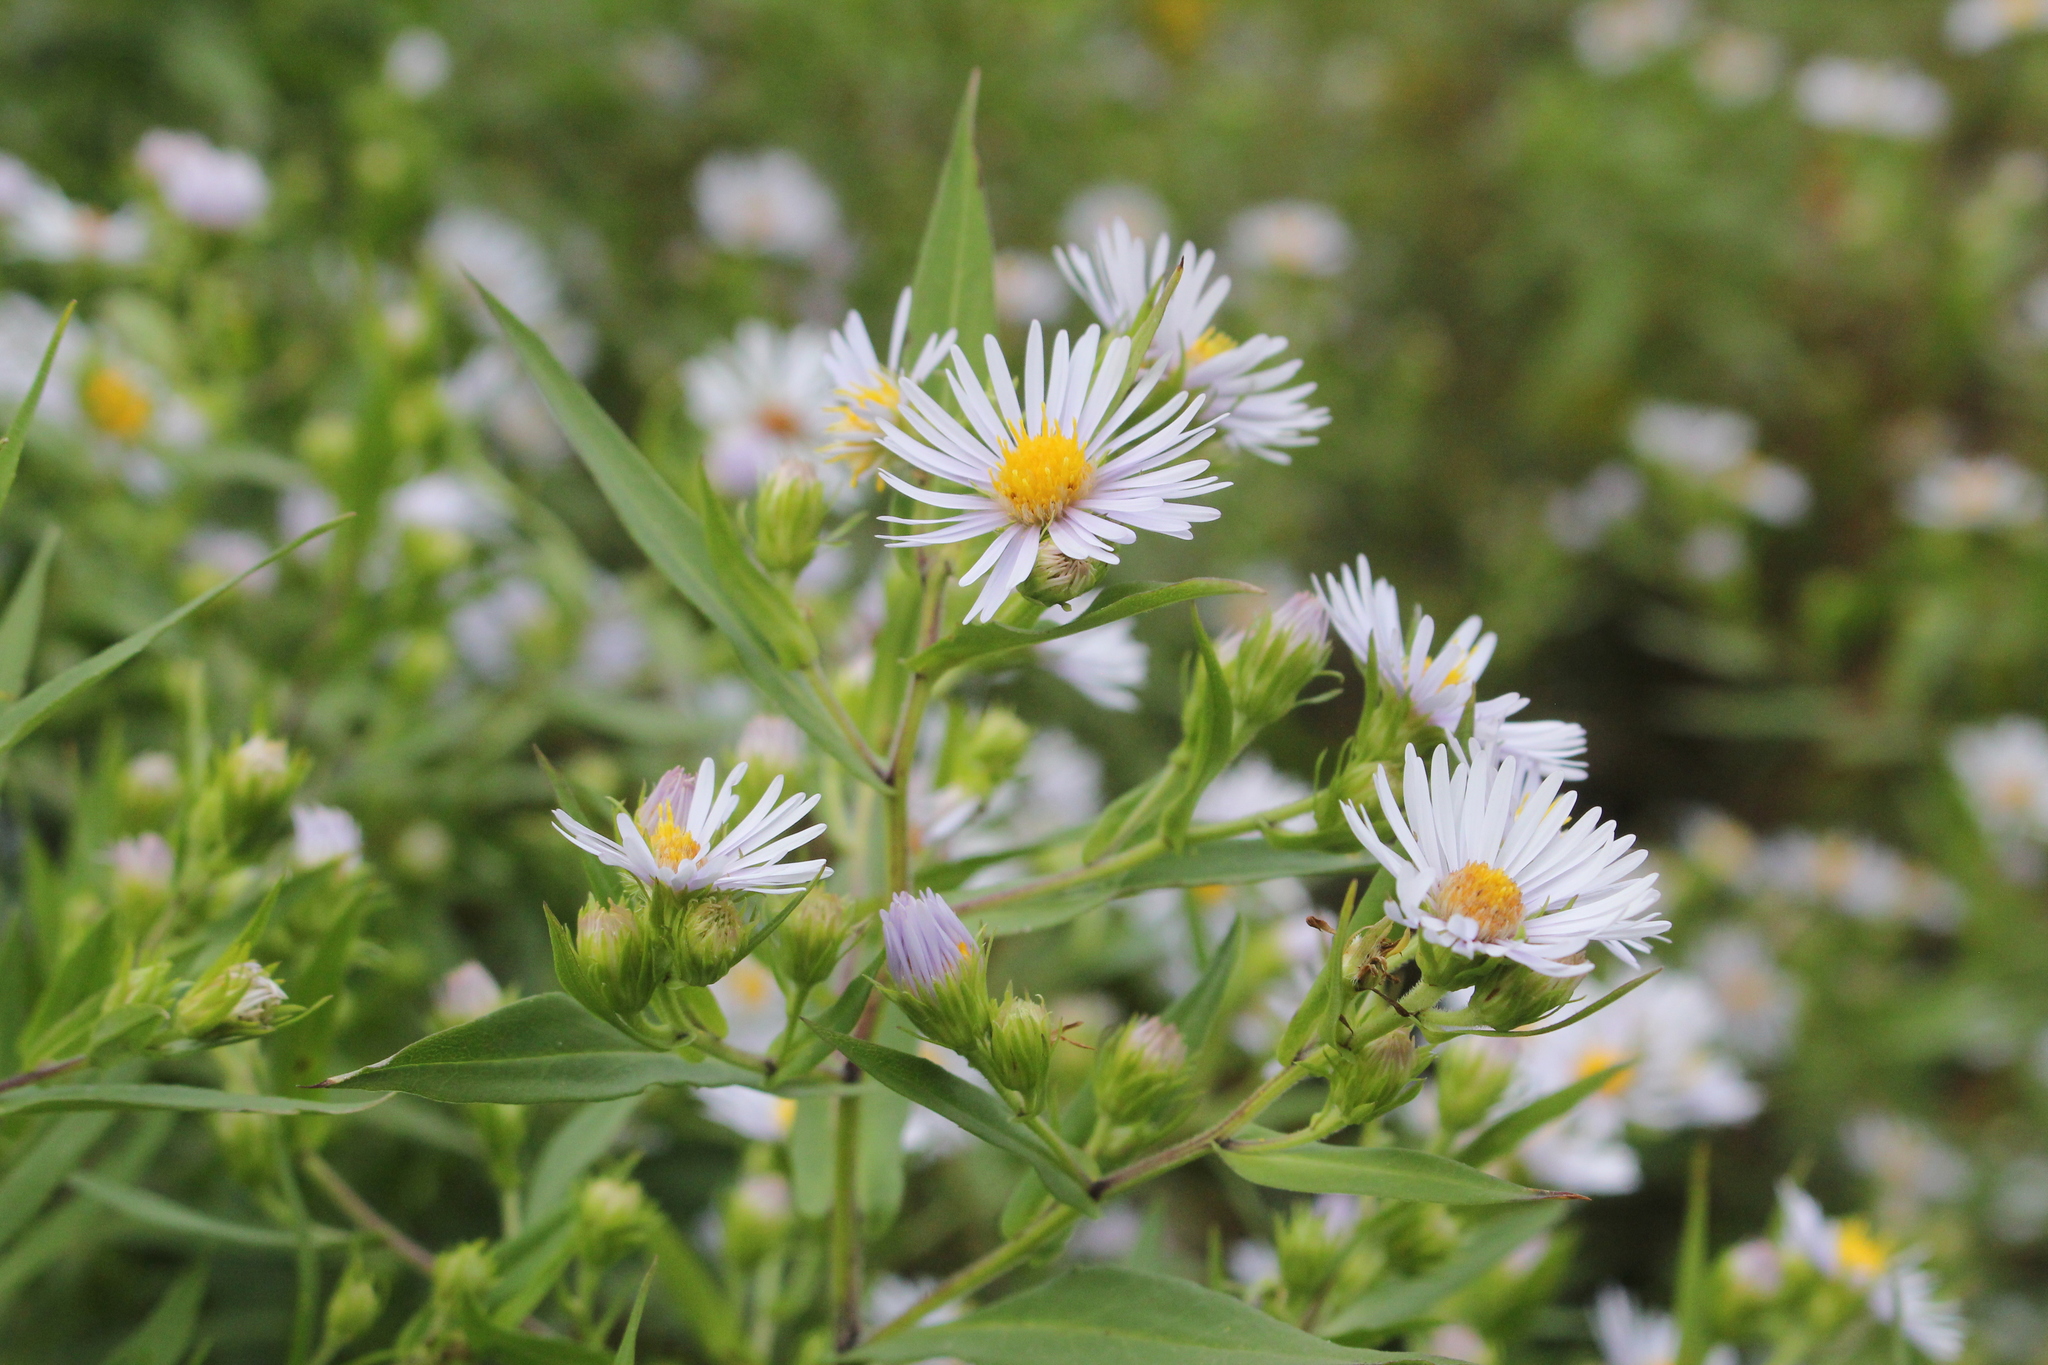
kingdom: Plantae
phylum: Tracheophyta
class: Magnoliopsida
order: Asterales
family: Asteraceae
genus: Symphyotrichum
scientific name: Symphyotrichum firmum
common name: Shining aster
